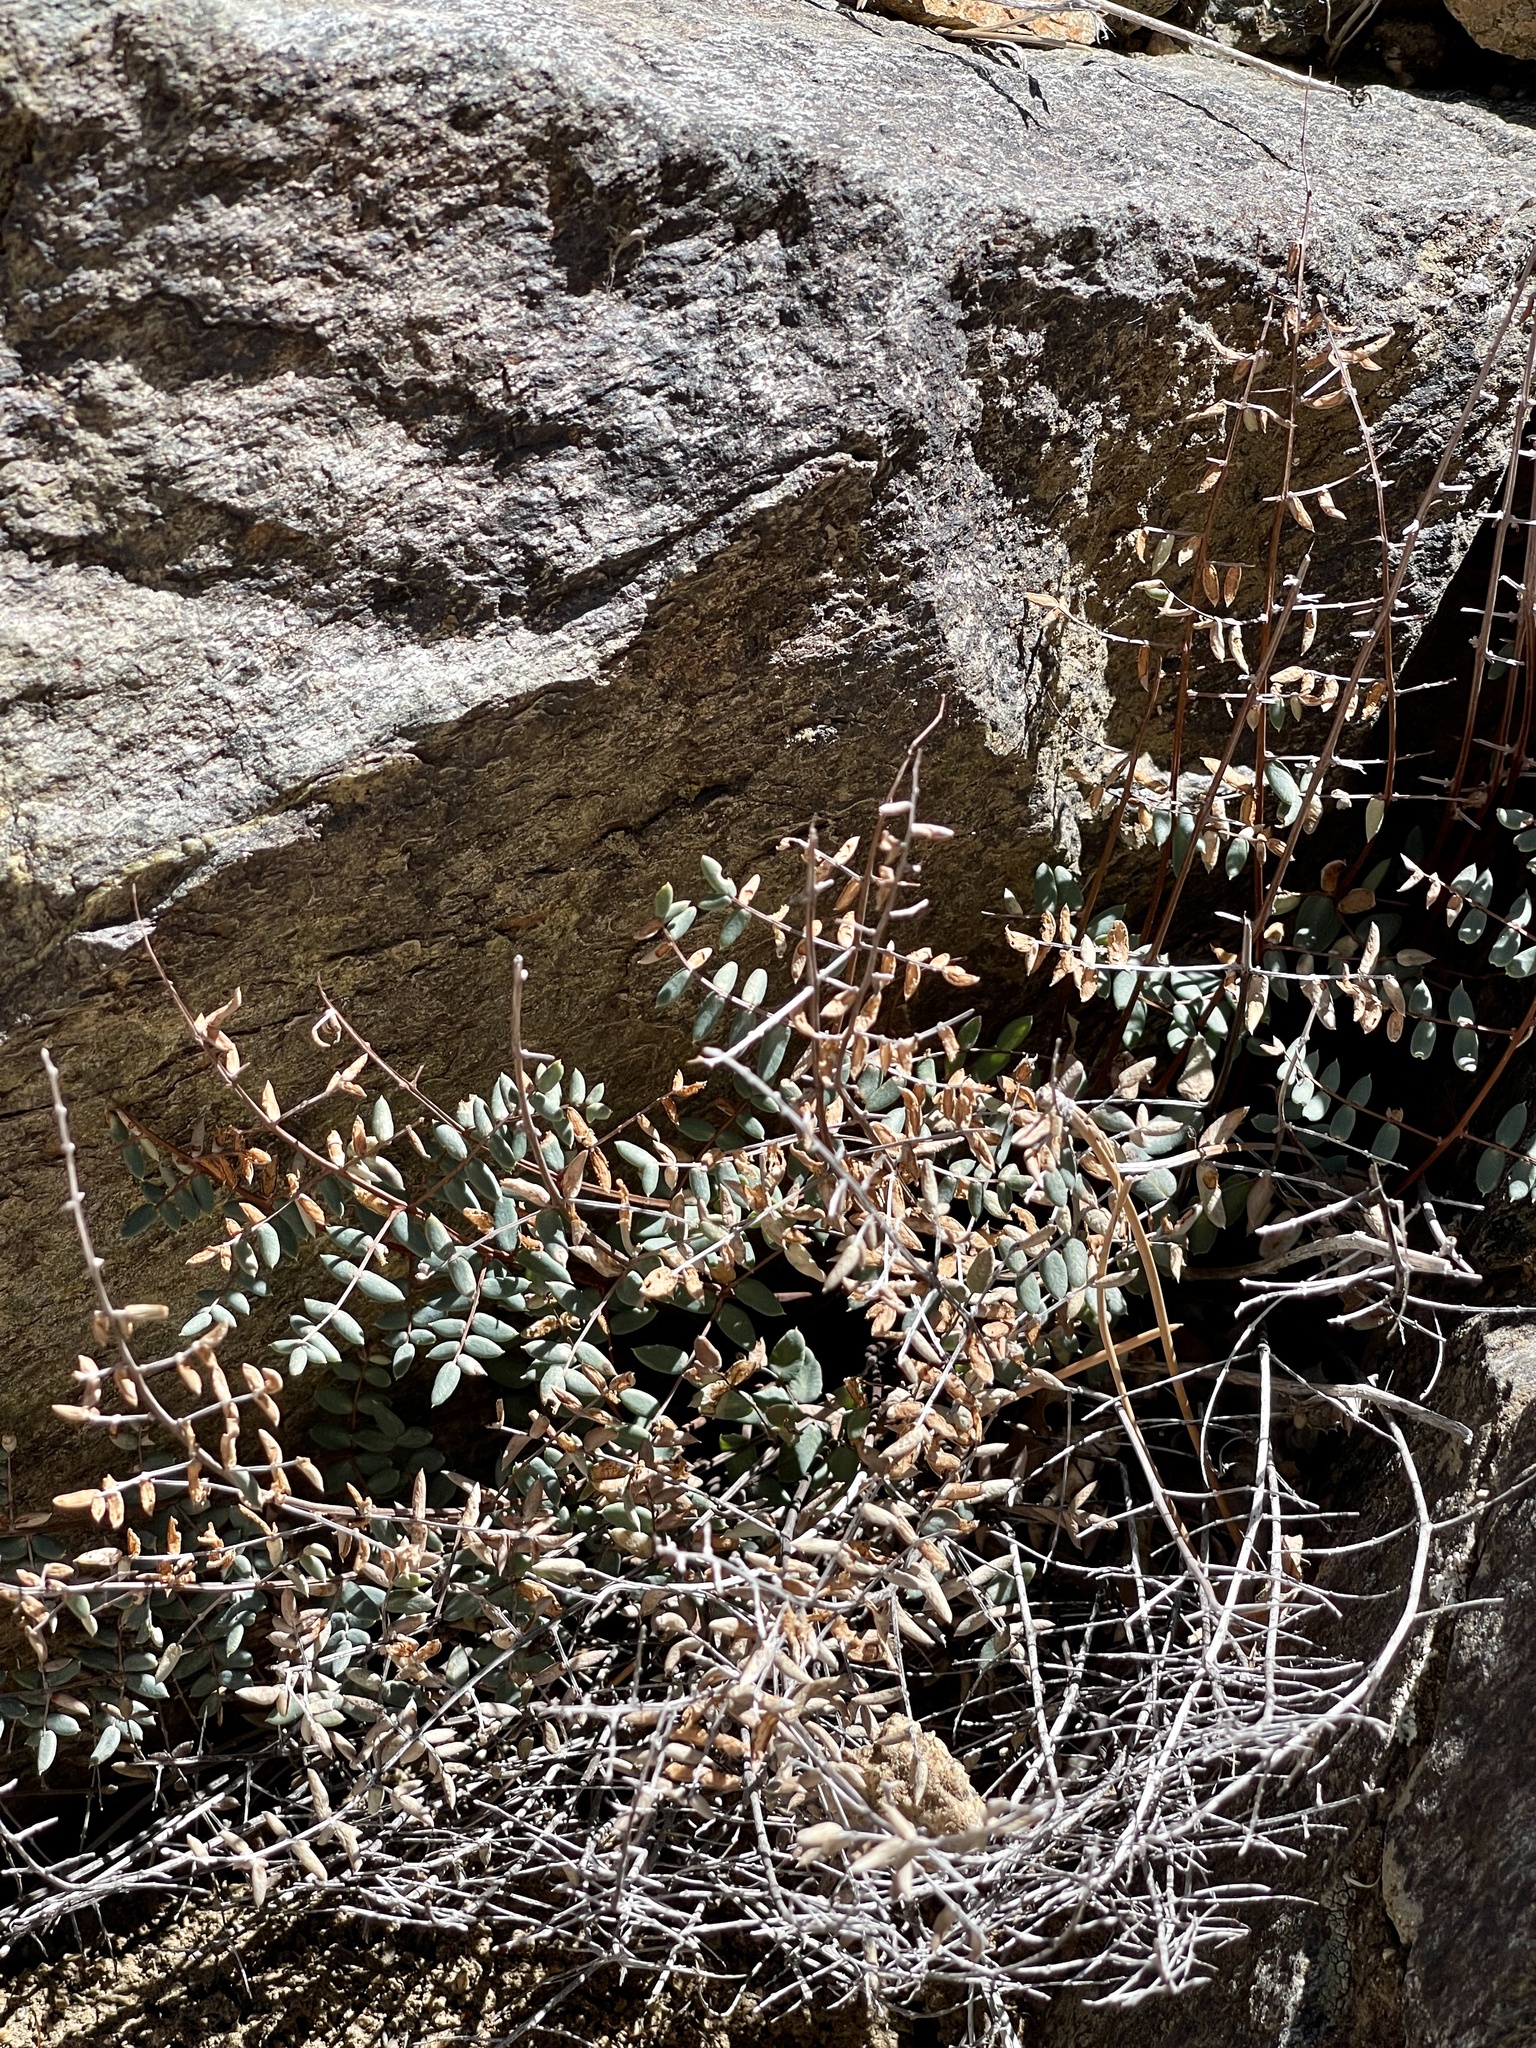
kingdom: Plantae
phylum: Tracheophyta
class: Polypodiopsida
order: Polypodiales
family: Pteridaceae
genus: Pellaea
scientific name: Pellaea truncata
